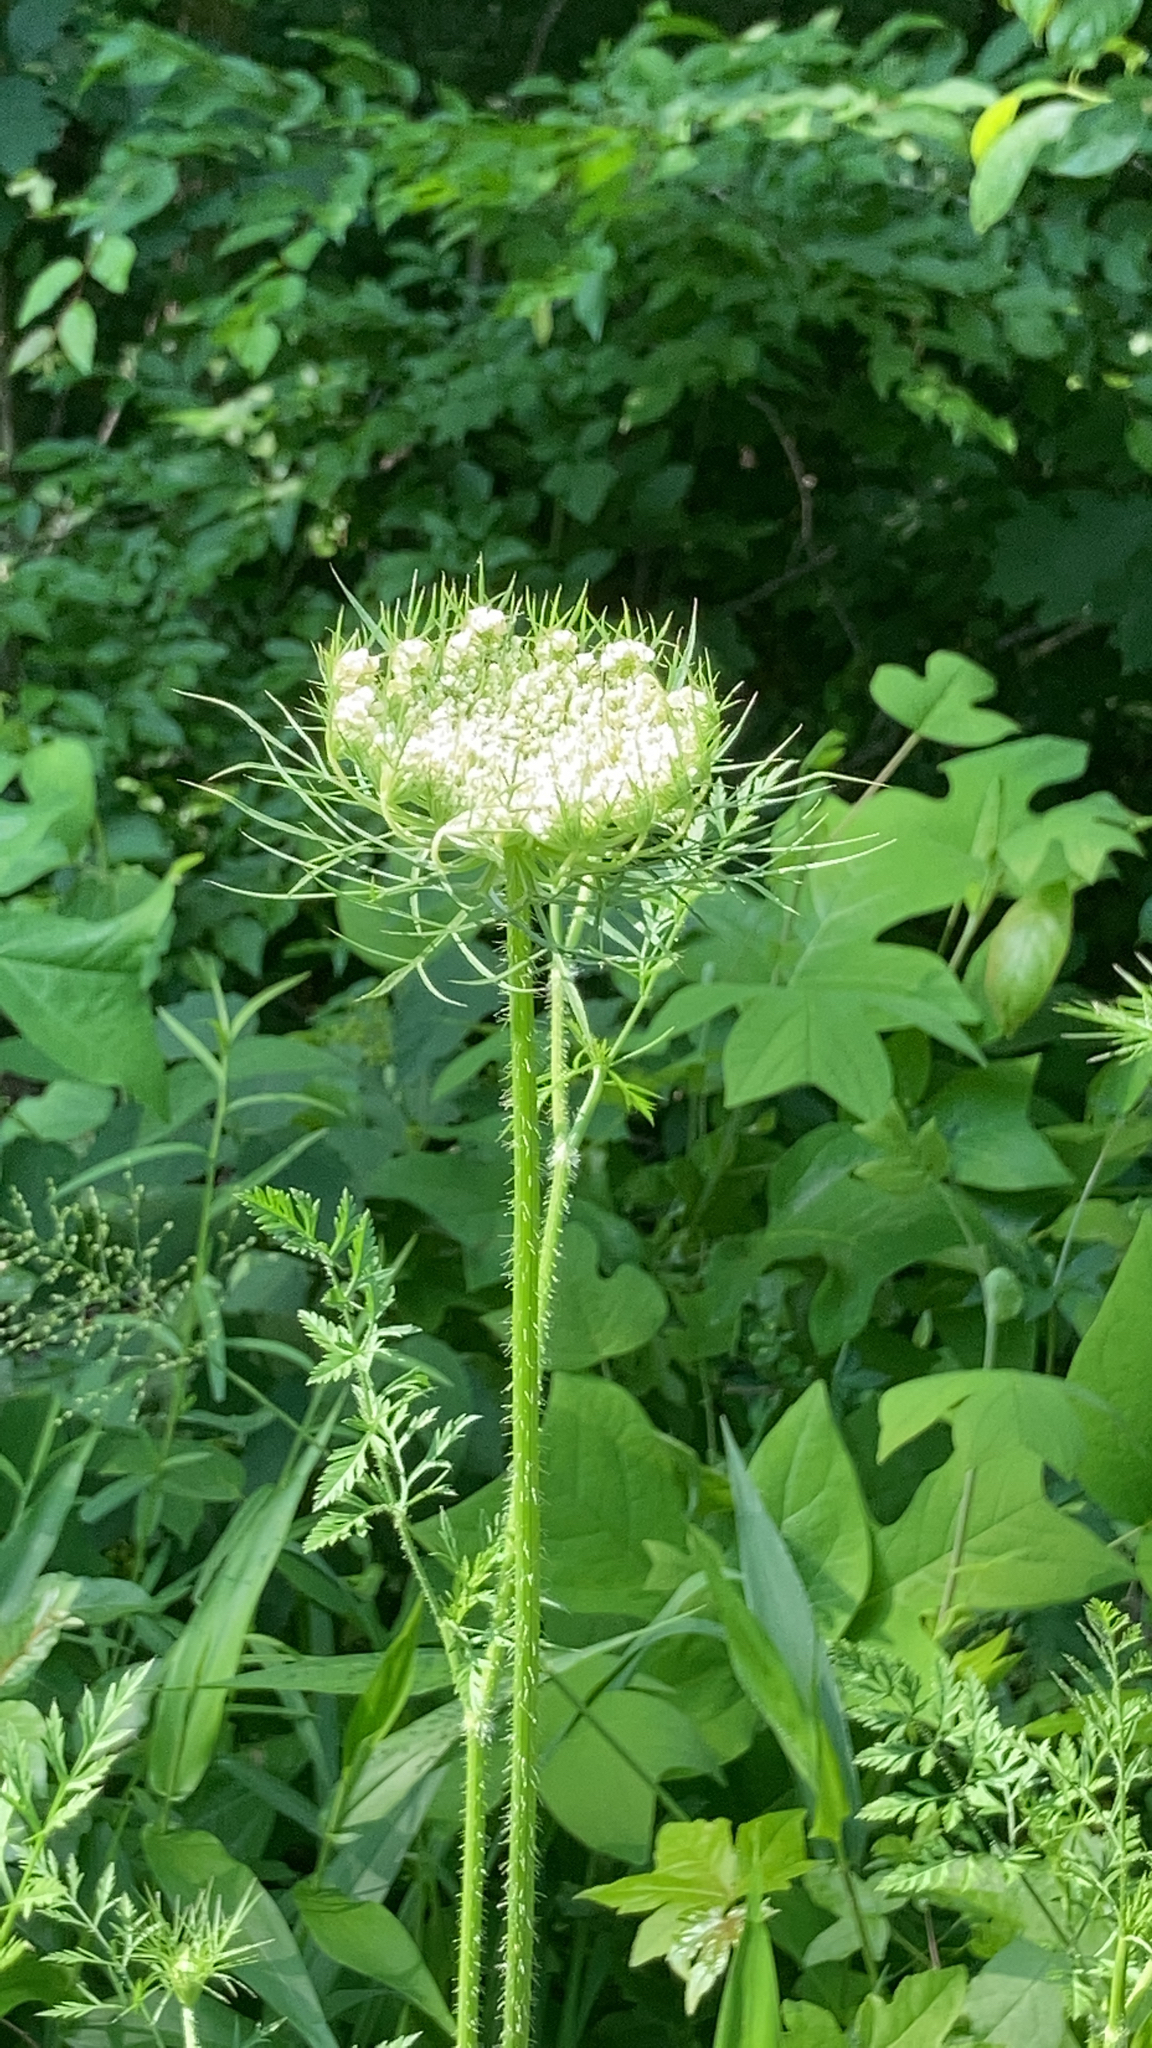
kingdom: Plantae
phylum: Tracheophyta
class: Magnoliopsida
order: Apiales
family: Apiaceae
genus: Daucus
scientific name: Daucus carota
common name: Wild carrot
